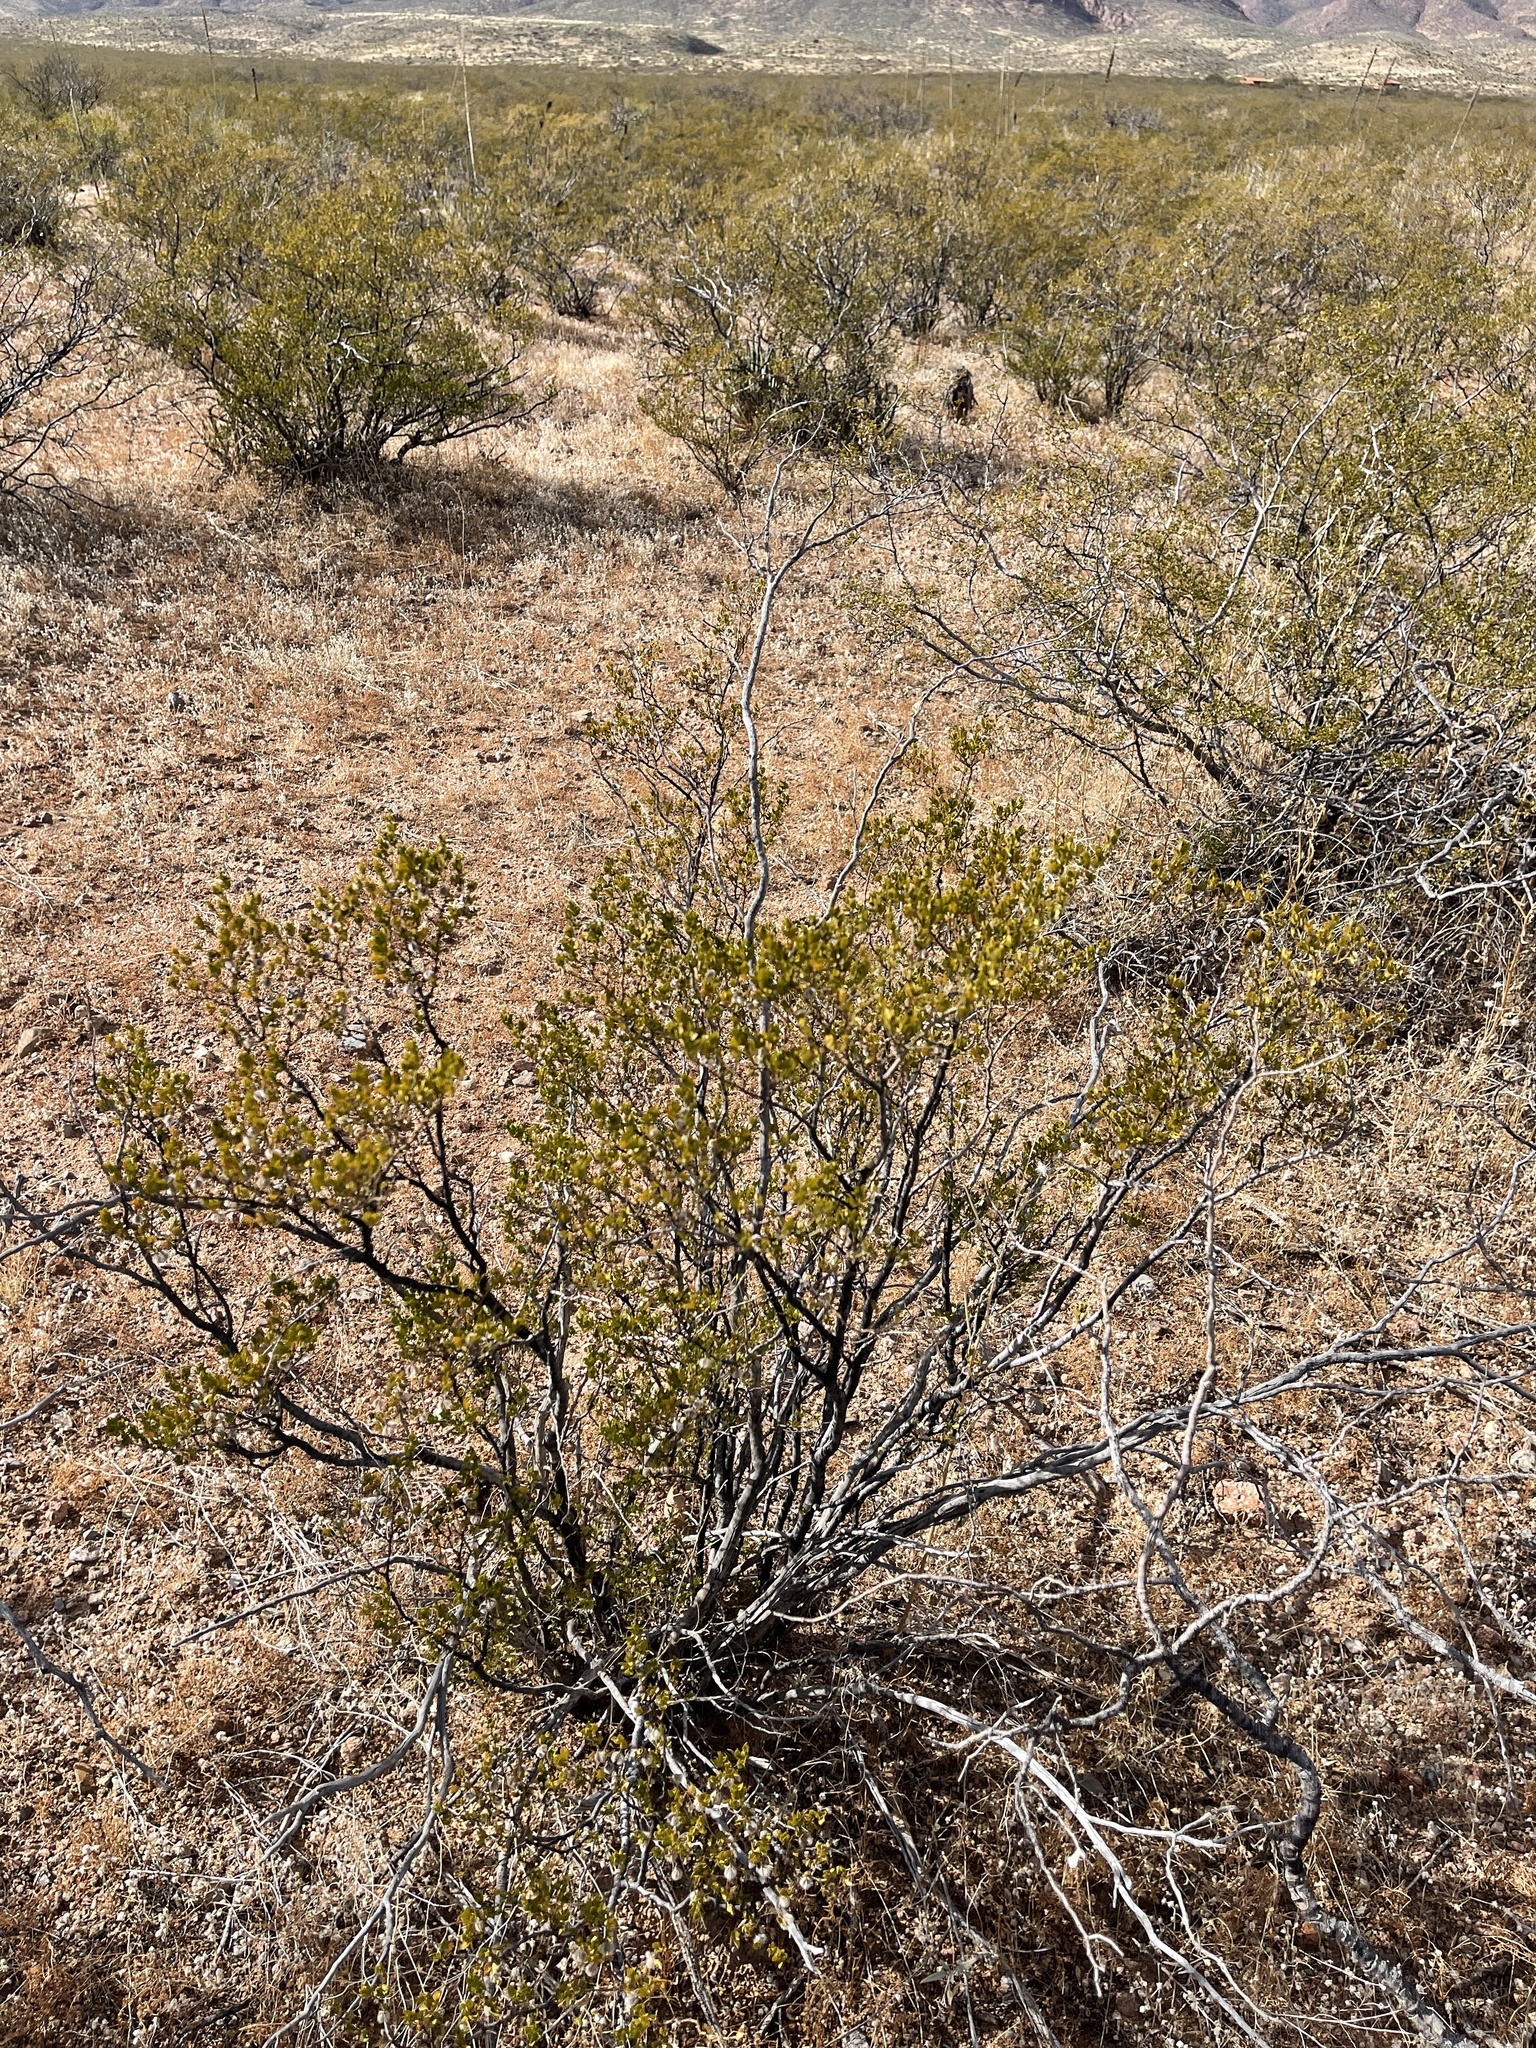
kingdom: Plantae
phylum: Tracheophyta
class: Magnoliopsida
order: Zygophyllales
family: Zygophyllaceae
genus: Larrea
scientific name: Larrea tridentata
